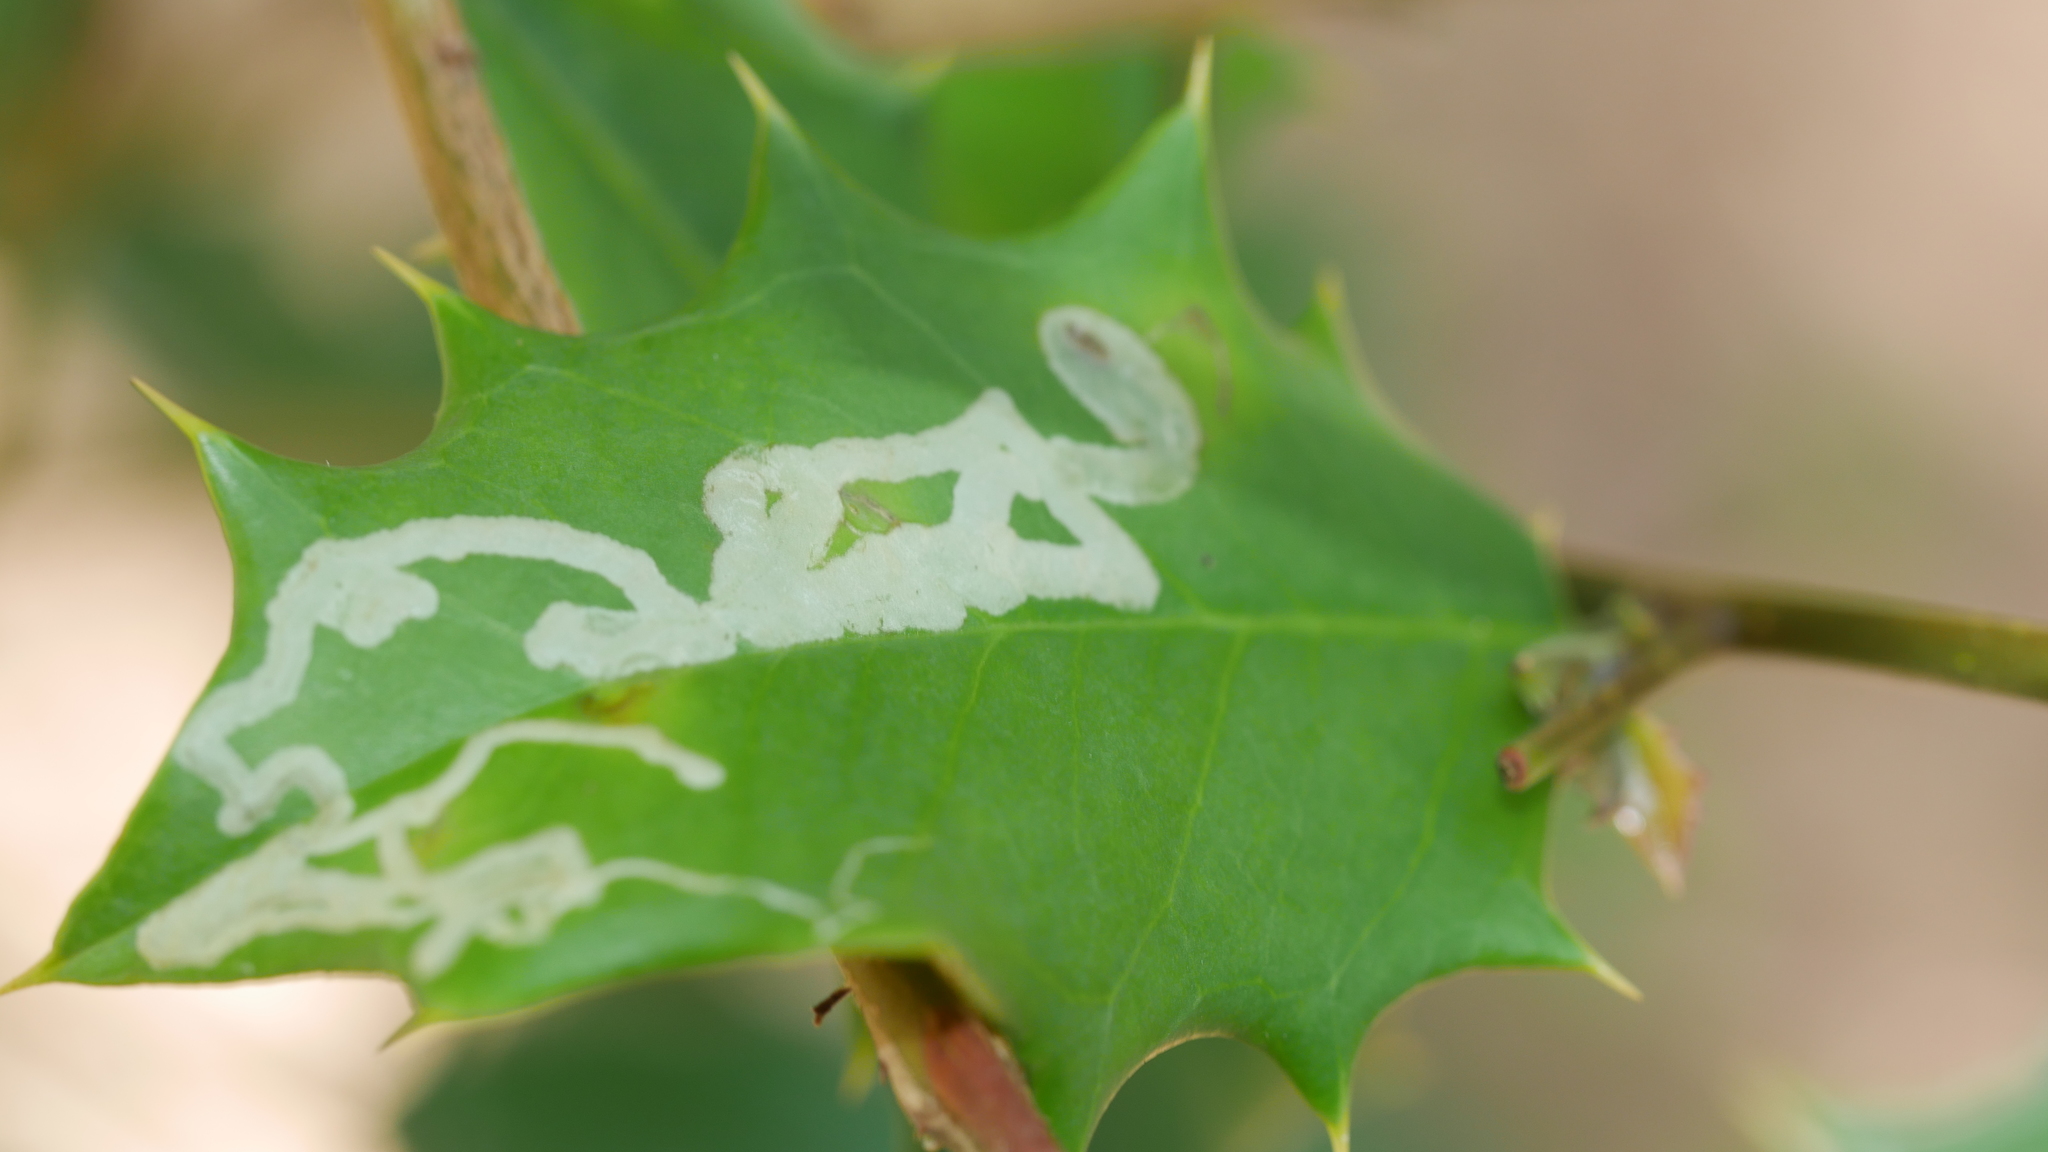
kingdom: Animalia
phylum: Arthropoda
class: Insecta
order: Diptera
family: Agromyzidae
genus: Phytomyza
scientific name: Phytomyza opacae
